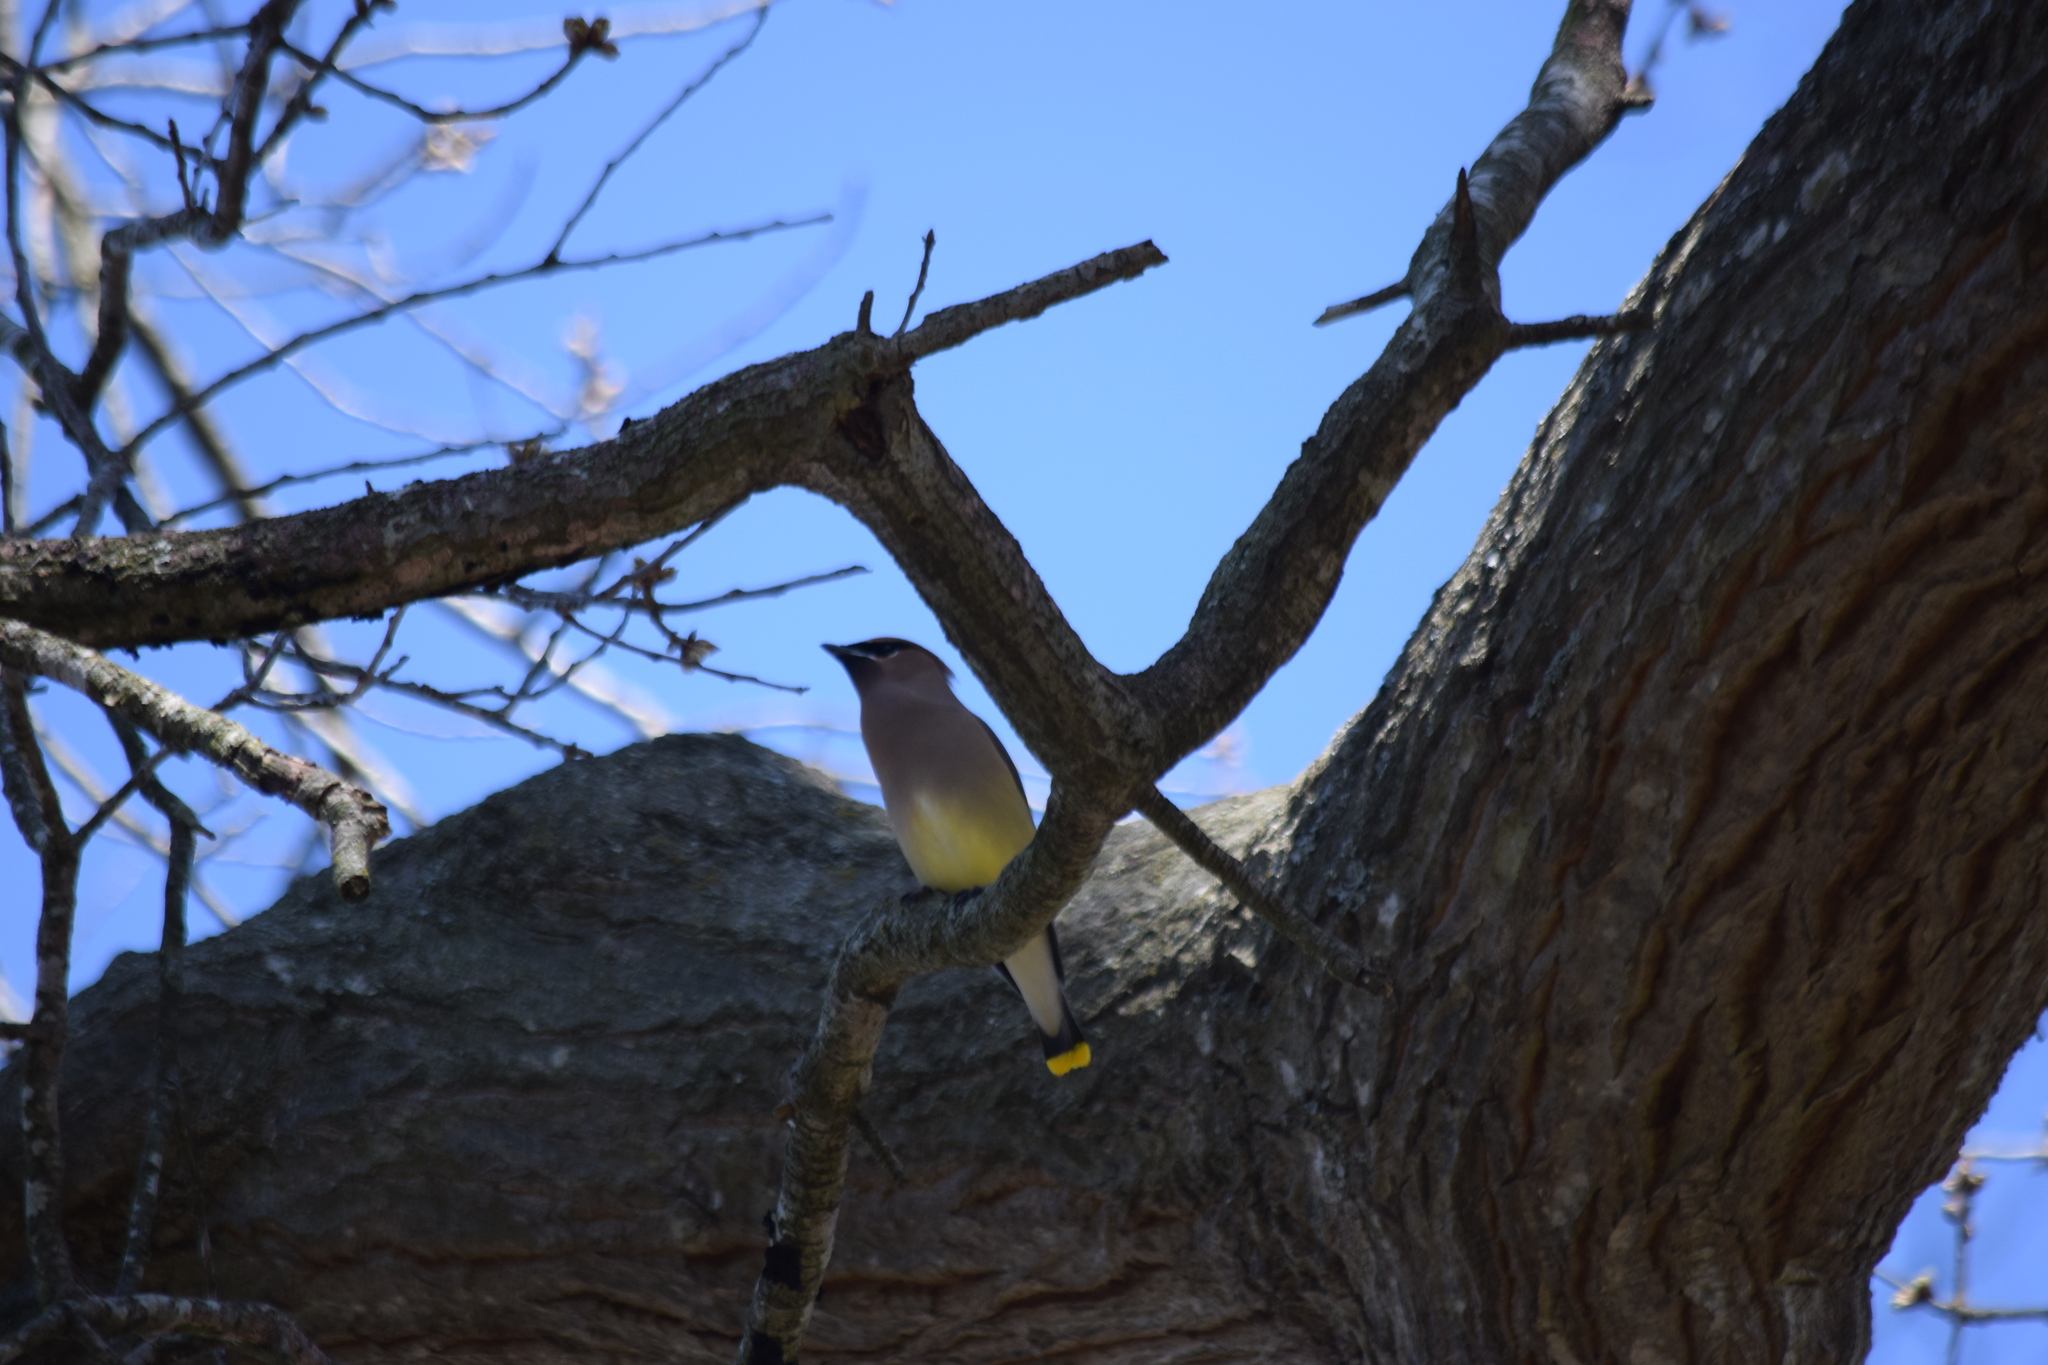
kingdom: Animalia
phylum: Chordata
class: Aves
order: Passeriformes
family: Bombycillidae
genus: Bombycilla
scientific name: Bombycilla cedrorum
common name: Cedar waxwing
